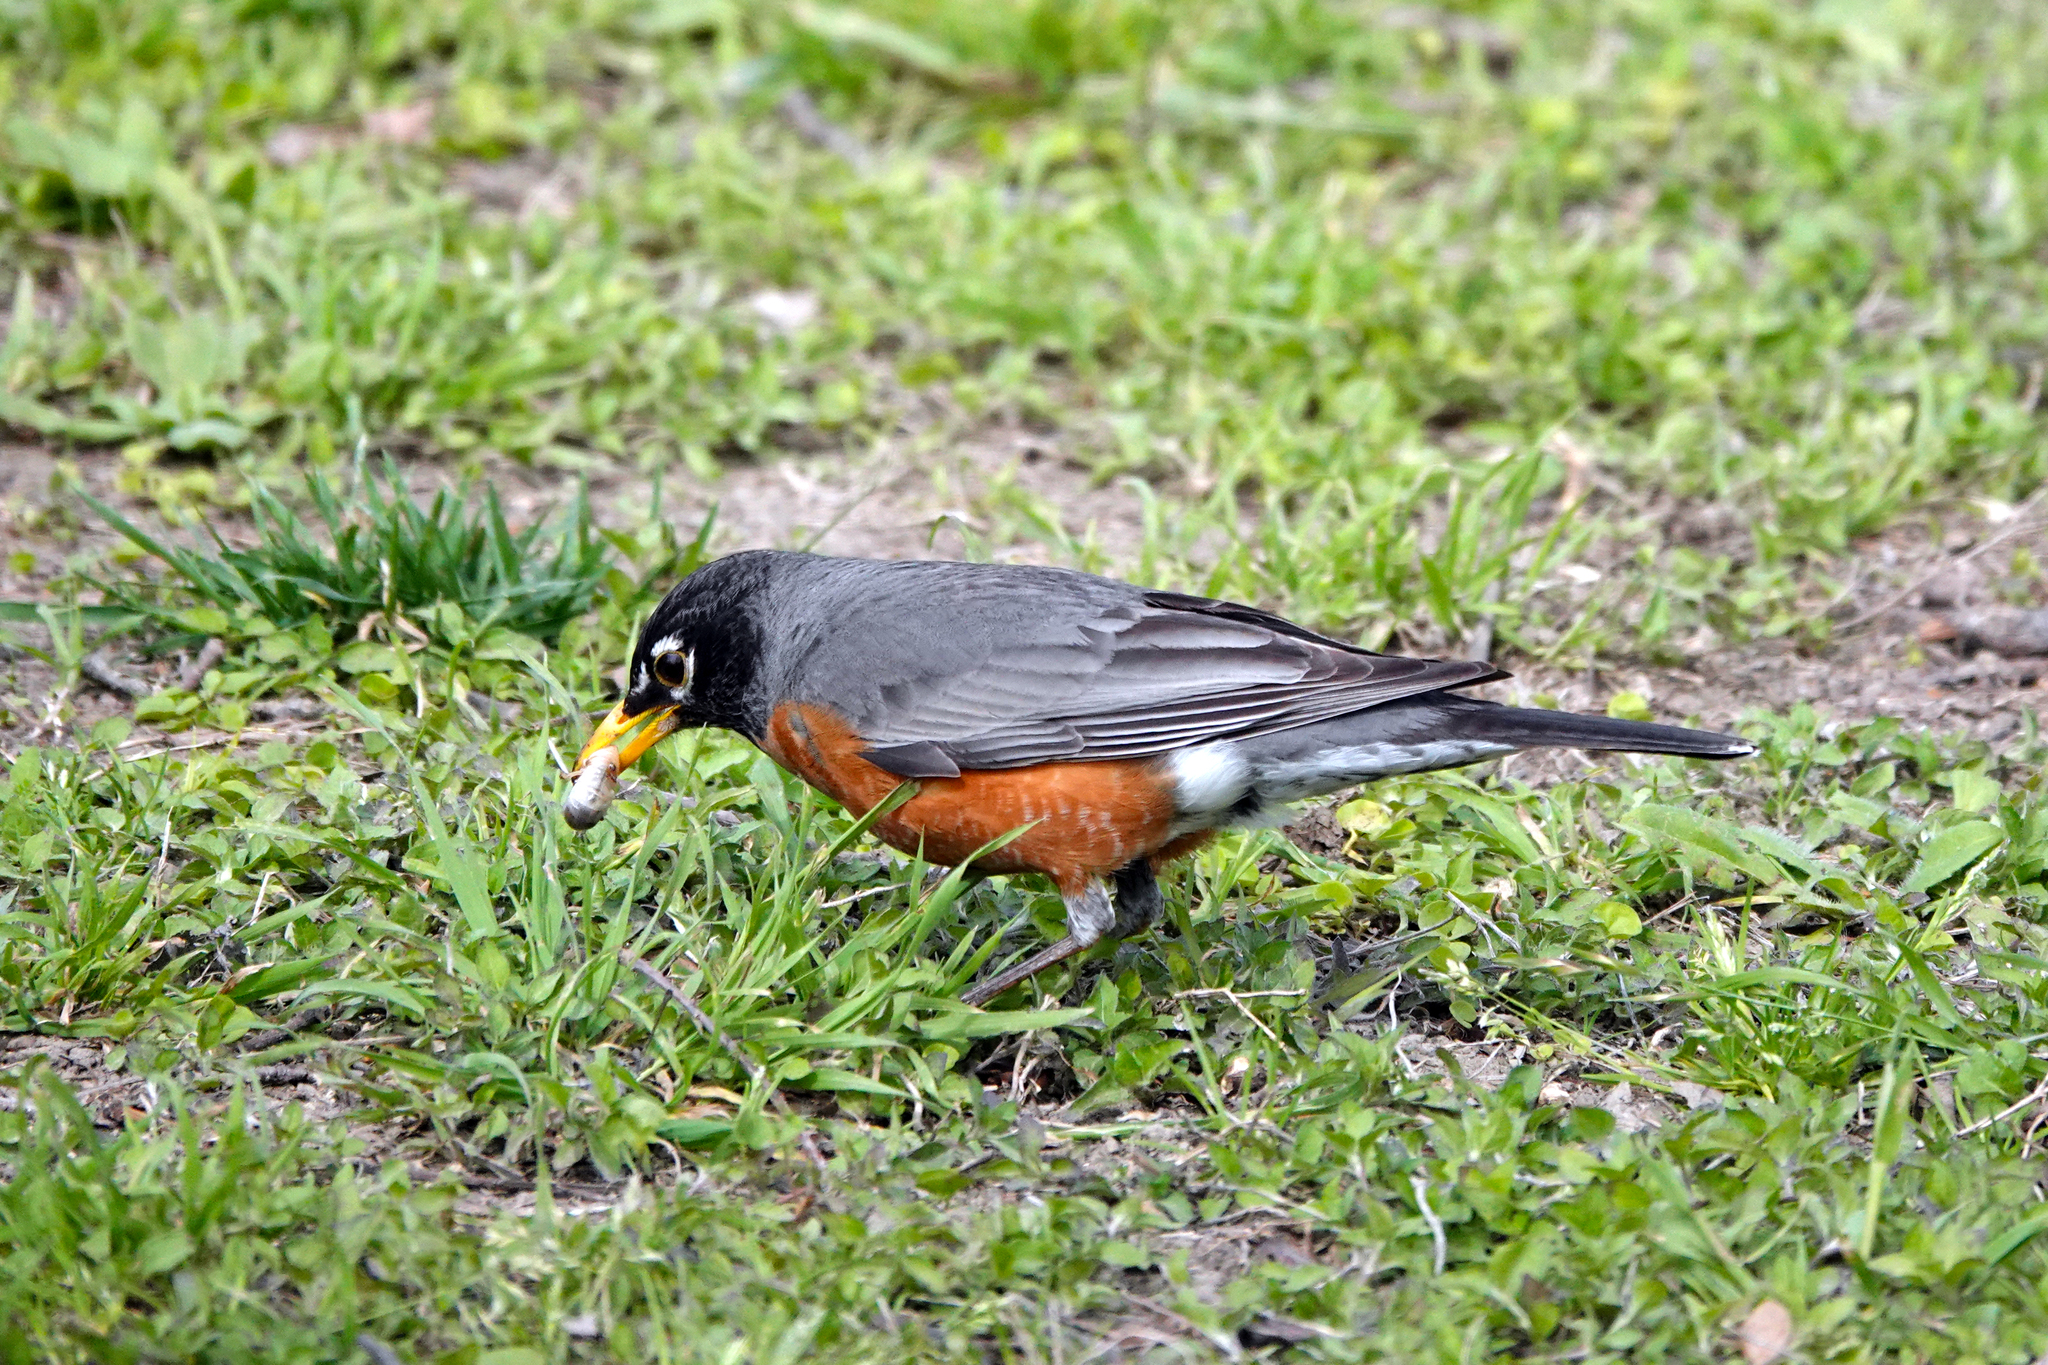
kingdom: Animalia
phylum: Chordata
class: Aves
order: Passeriformes
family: Turdidae
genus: Turdus
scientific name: Turdus migratorius
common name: American robin
